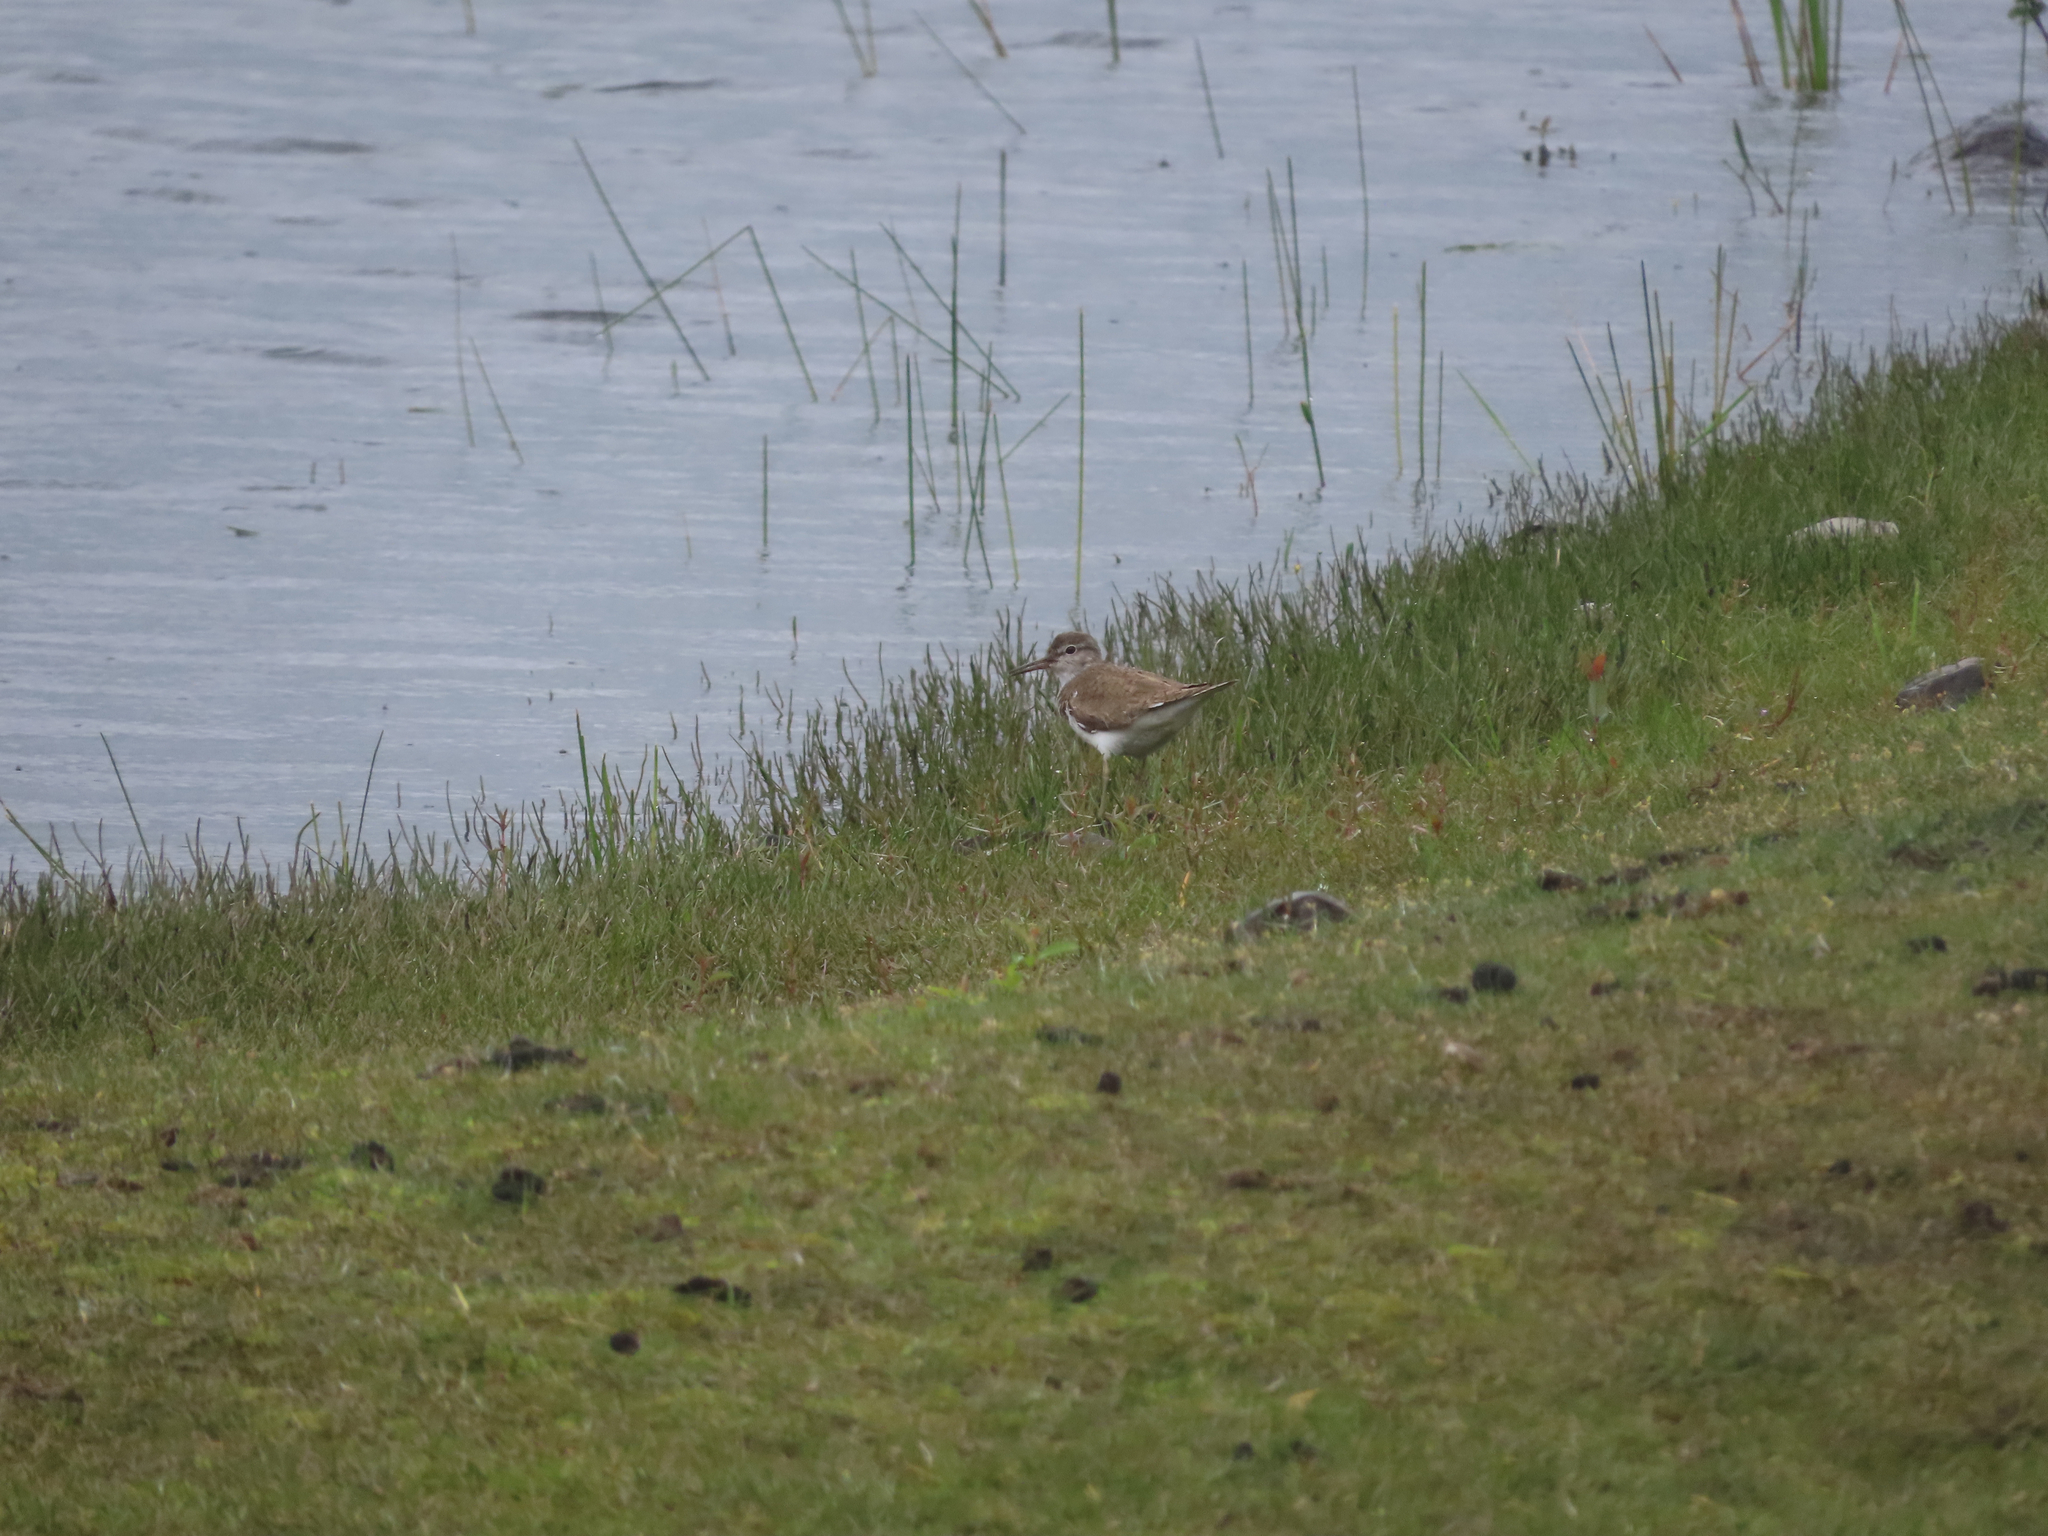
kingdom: Animalia
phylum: Chordata
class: Aves
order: Charadriiformes
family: Scolopacidae
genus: Actitis
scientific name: Actitis hypoleucos
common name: Common sandpiper
